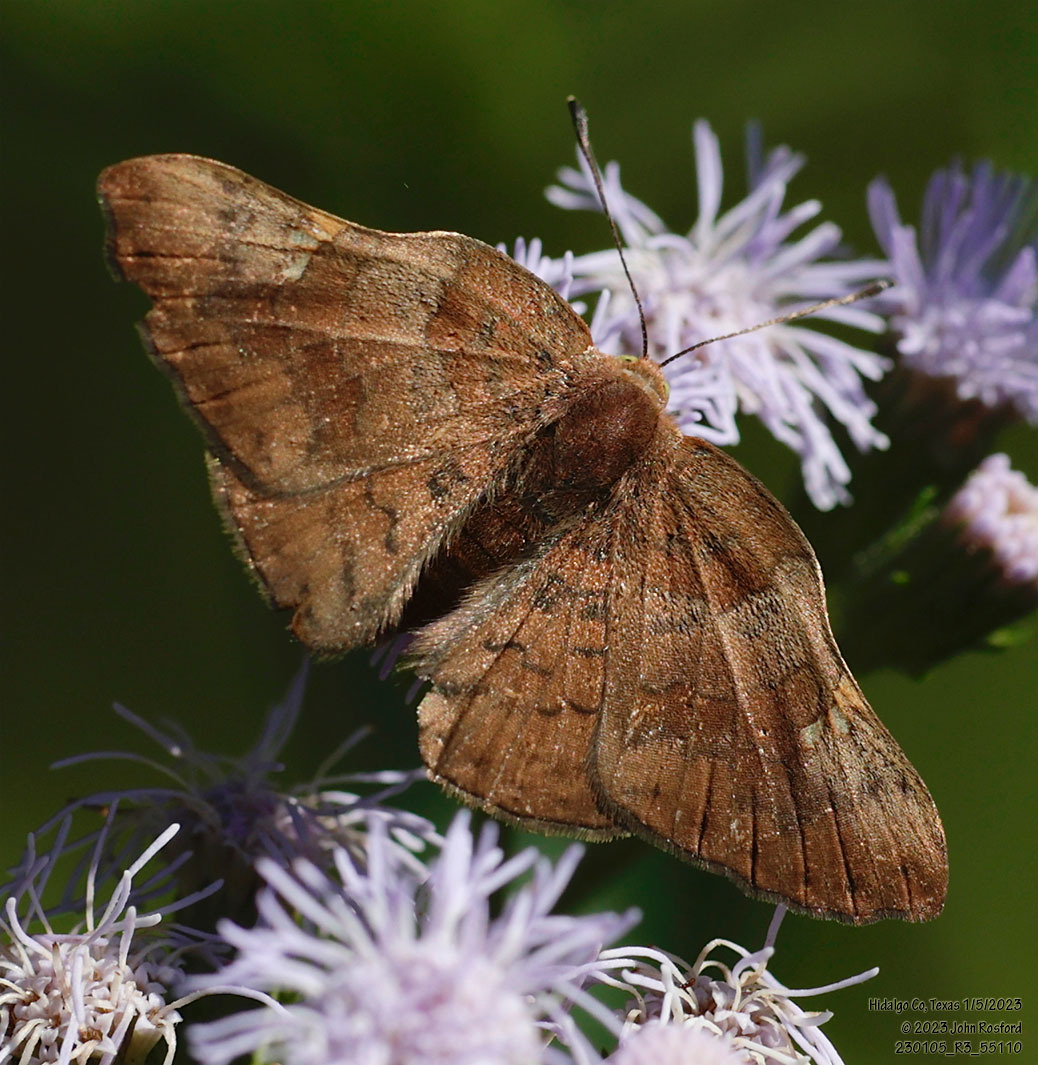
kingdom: Animalia
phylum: Arthropoda
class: Insecta
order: Lepidoptera
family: Riodinidae
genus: Curvie
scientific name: Curvie emesia
